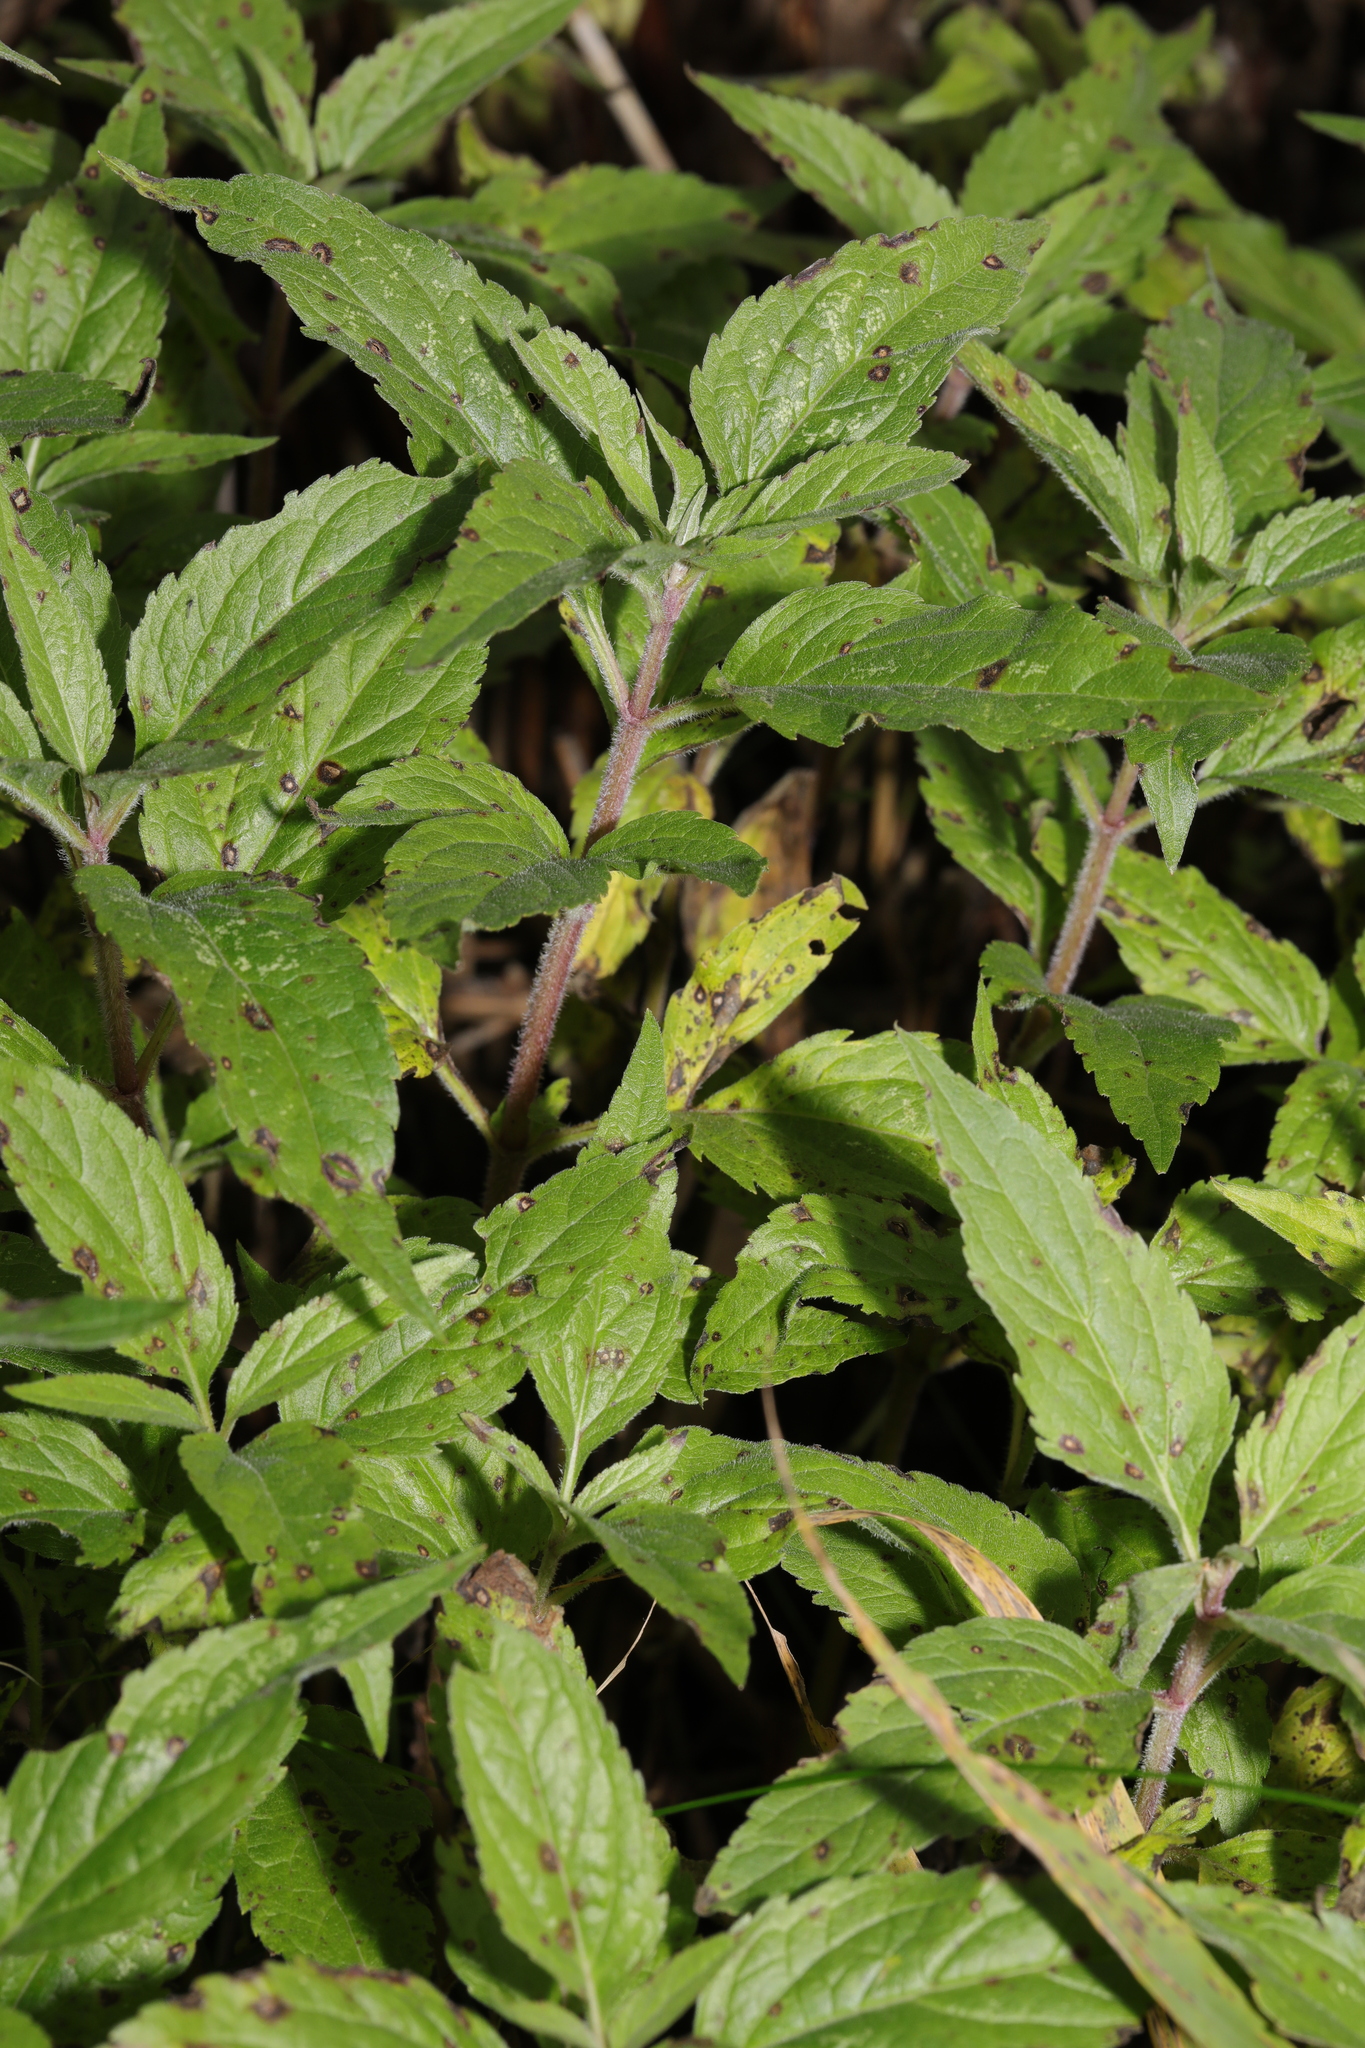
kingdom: Plantae
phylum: Tracheophyta
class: Magnoliopsida
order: Asterales
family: Asteraceae
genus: Eupatorium
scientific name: Eupatorium cannabinum
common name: Hemp-agrimony
